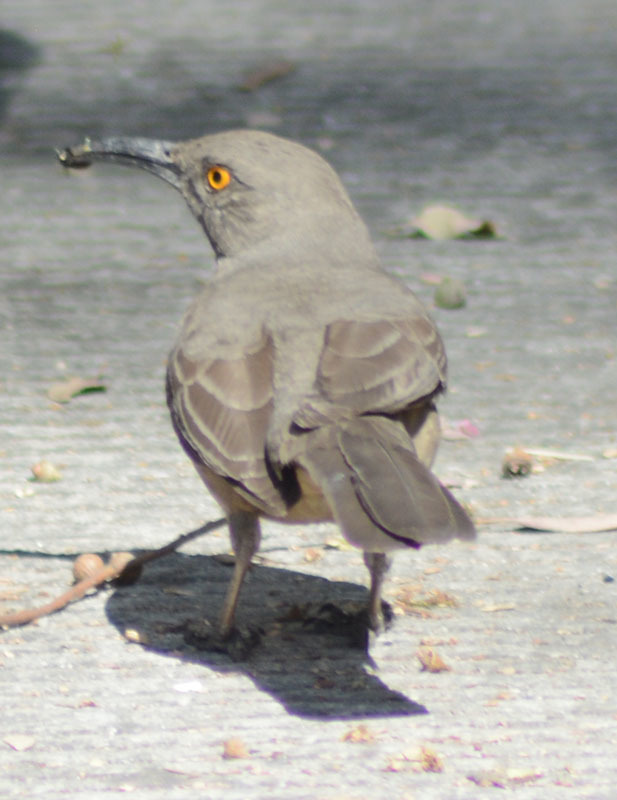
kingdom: Animalia
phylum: Chordata
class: Aves
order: Passeriformes
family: Mimidae
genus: Toxostoma
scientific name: Toxostoma curvirostre
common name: Curve-billed thrasher
